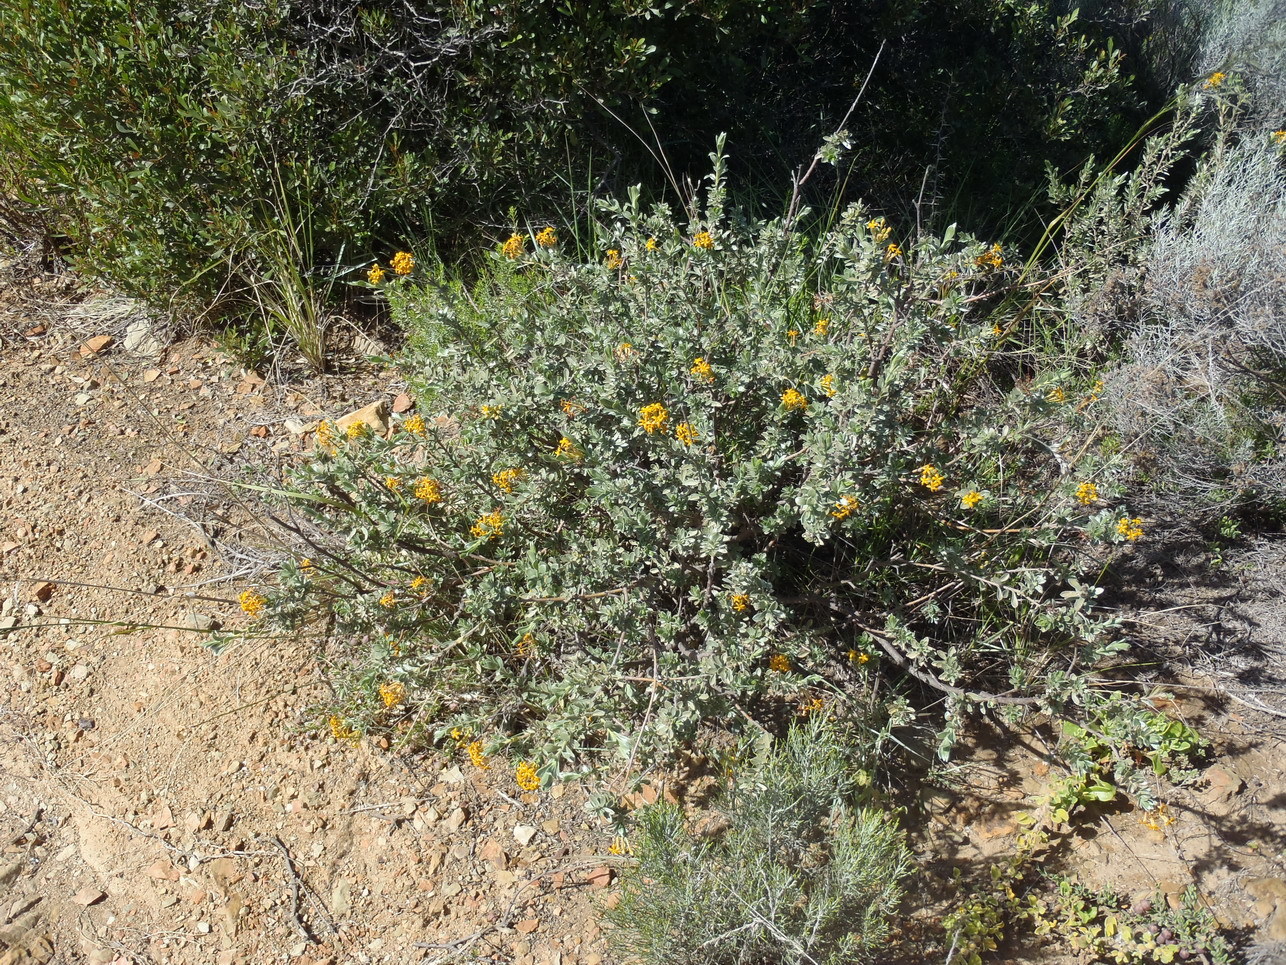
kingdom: Plantae
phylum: Tracheophyta
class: Magnoliopsida
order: Malvales
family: Thymelaeaceae
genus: Gnidia
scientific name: Gnidia cuneata
